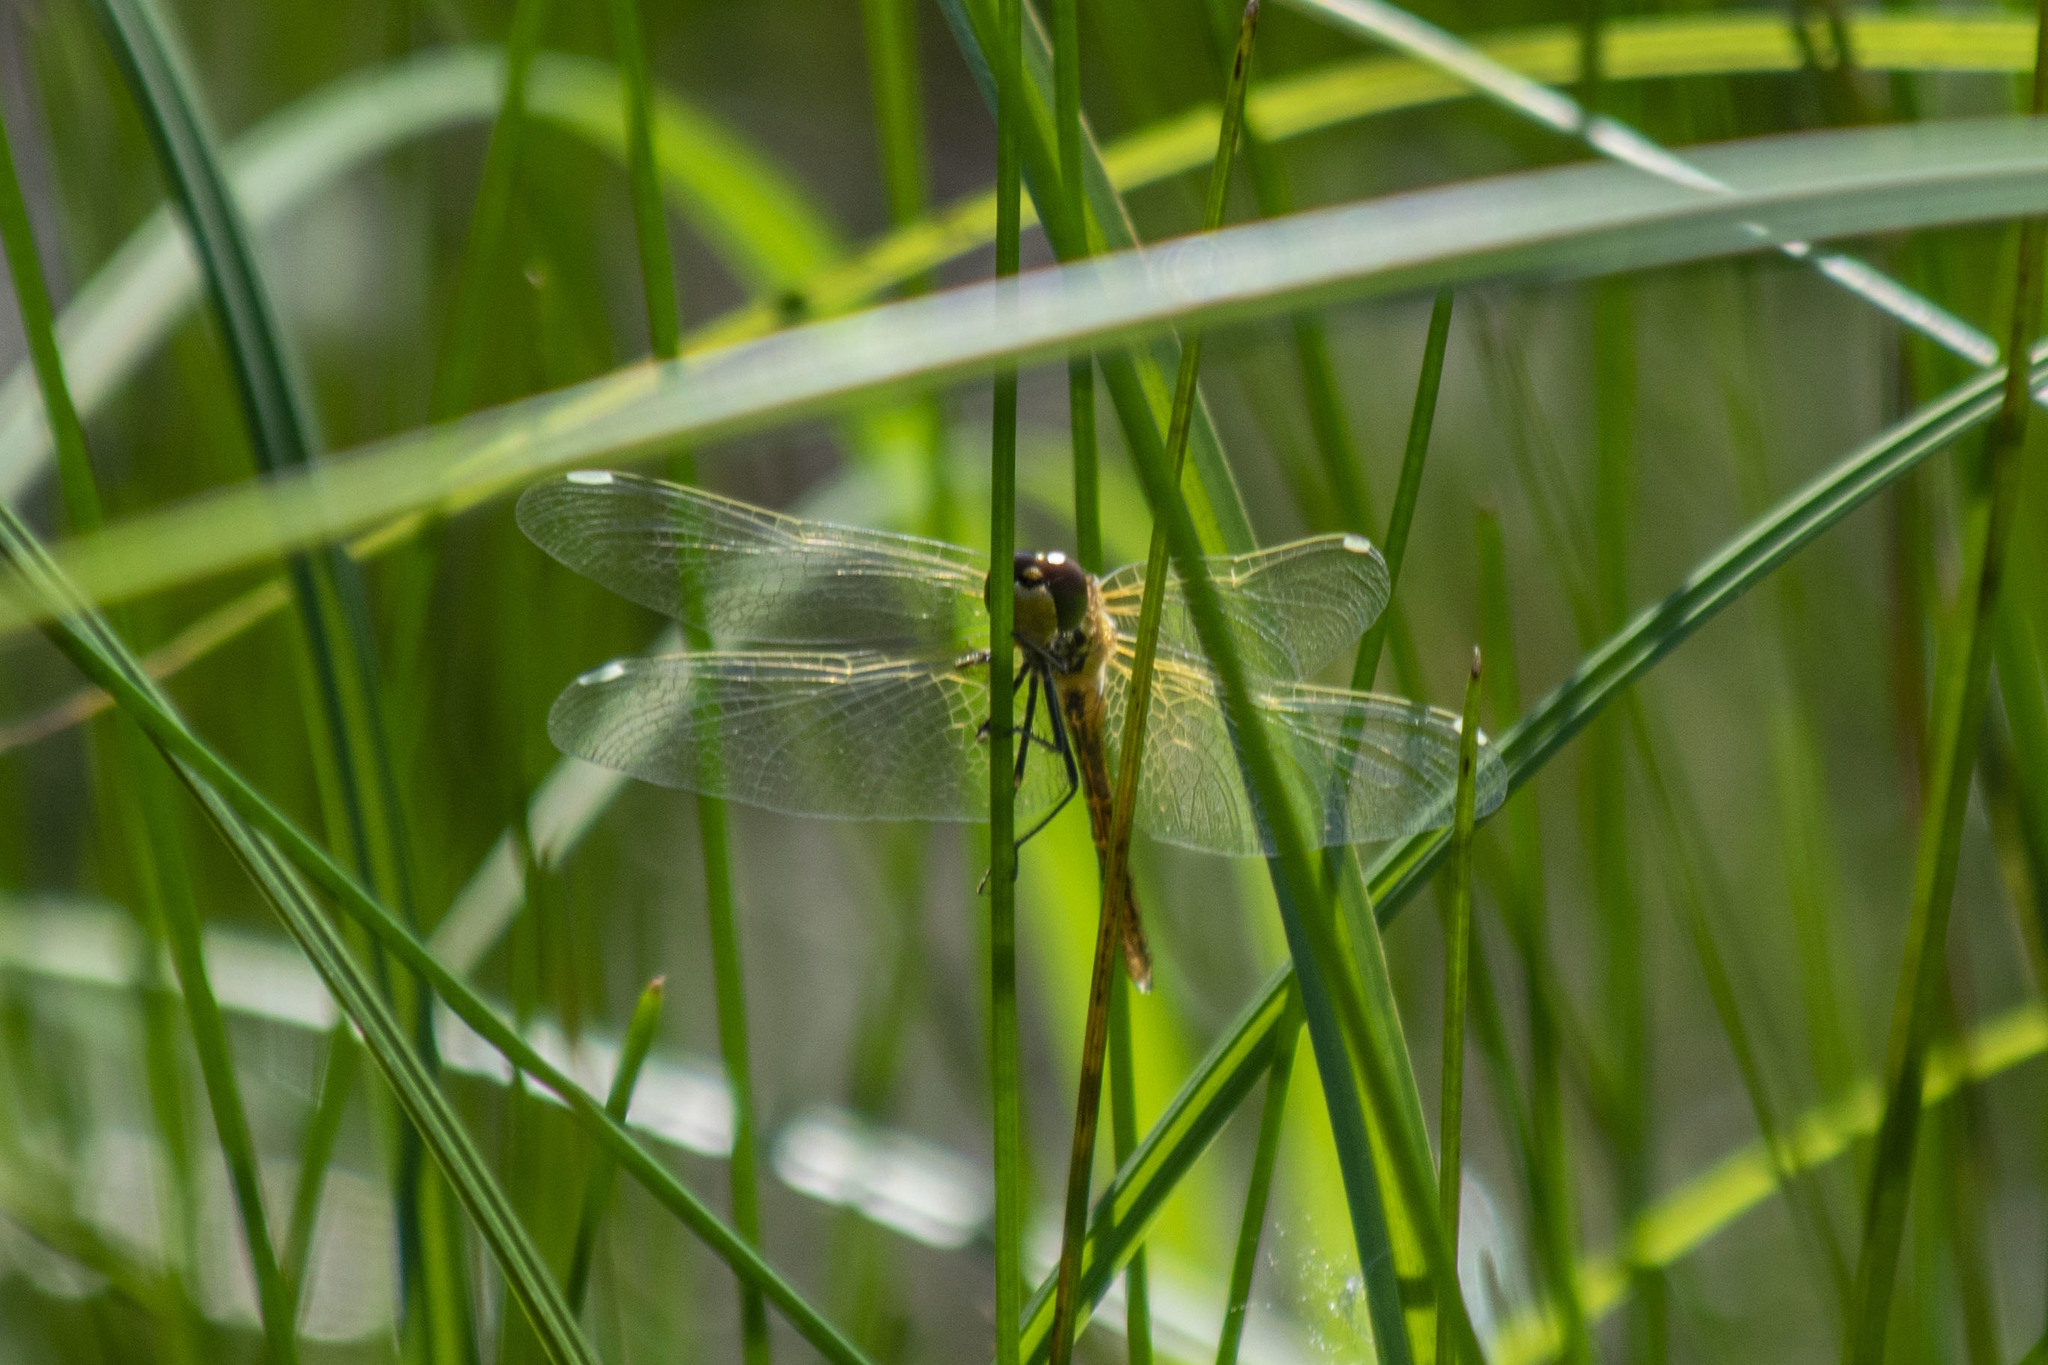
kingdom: Animalia
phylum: Arthropoda
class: Insecta
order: Odonata
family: Libellulidae
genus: Sympetrum
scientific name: Sympetrum flaveolum
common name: Yellow-winged darter
